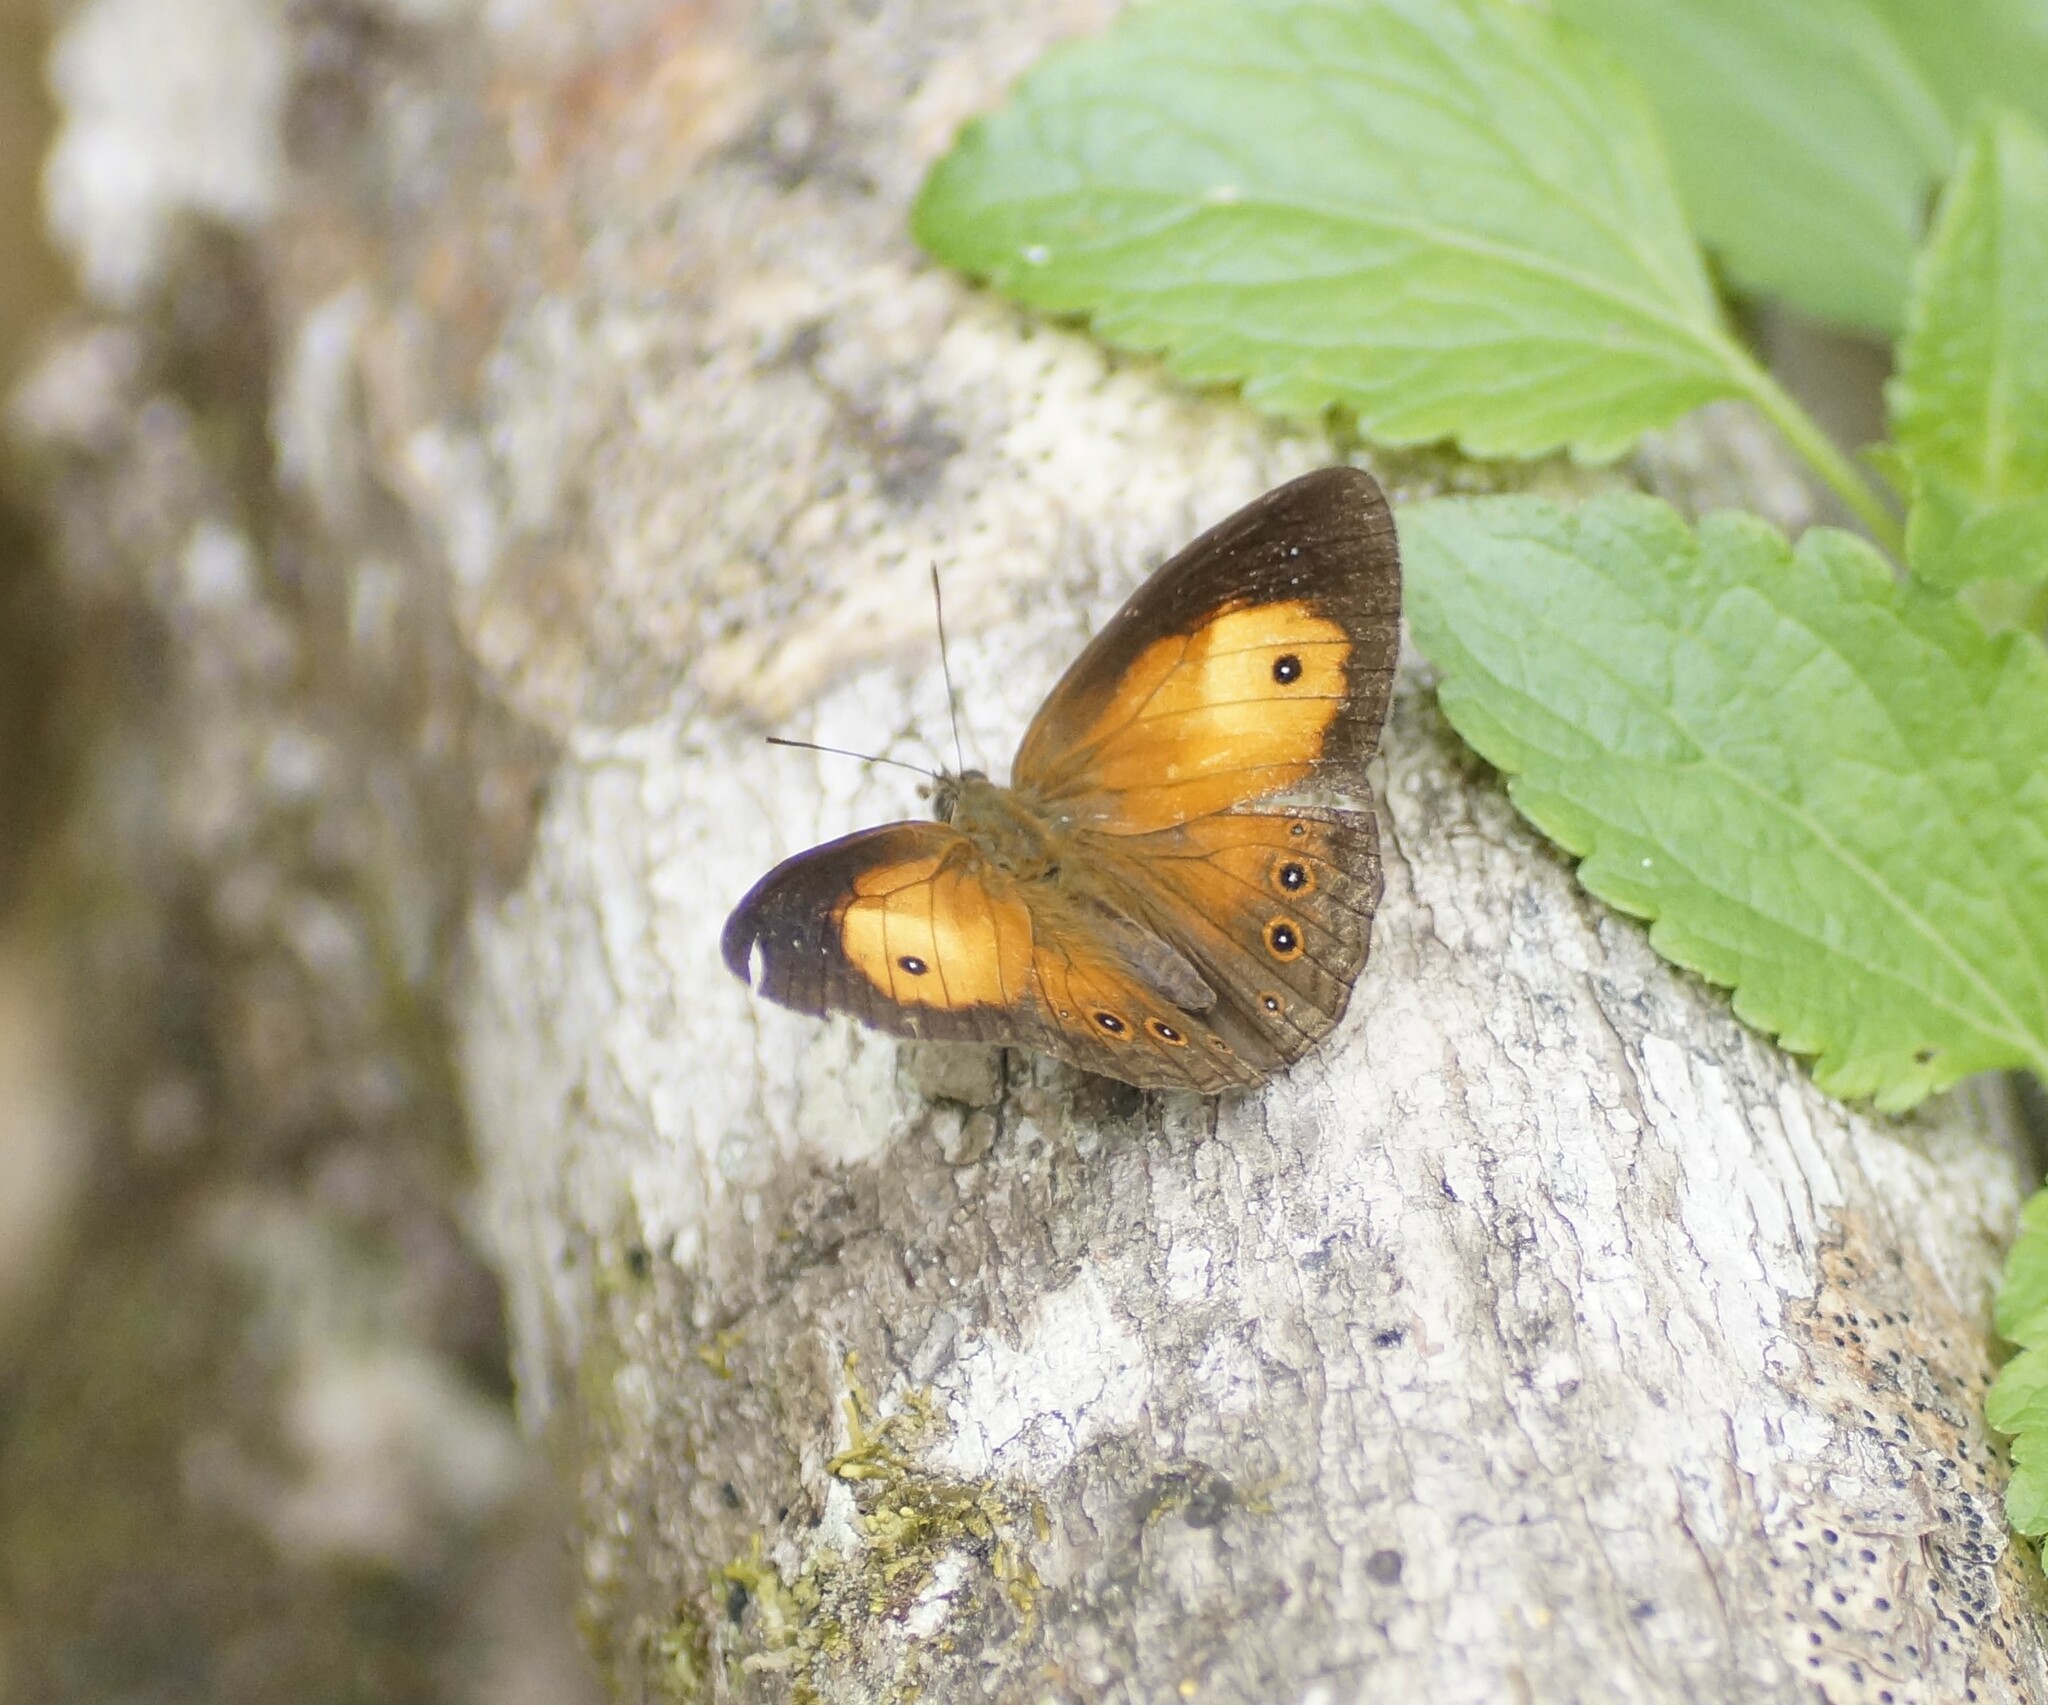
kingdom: Animalia
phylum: Arthropoda
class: Insecta
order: Lepidoptera
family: Nymphalidae
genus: Mycalesis
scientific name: Mycalesis terminus
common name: Orange bushbrown
